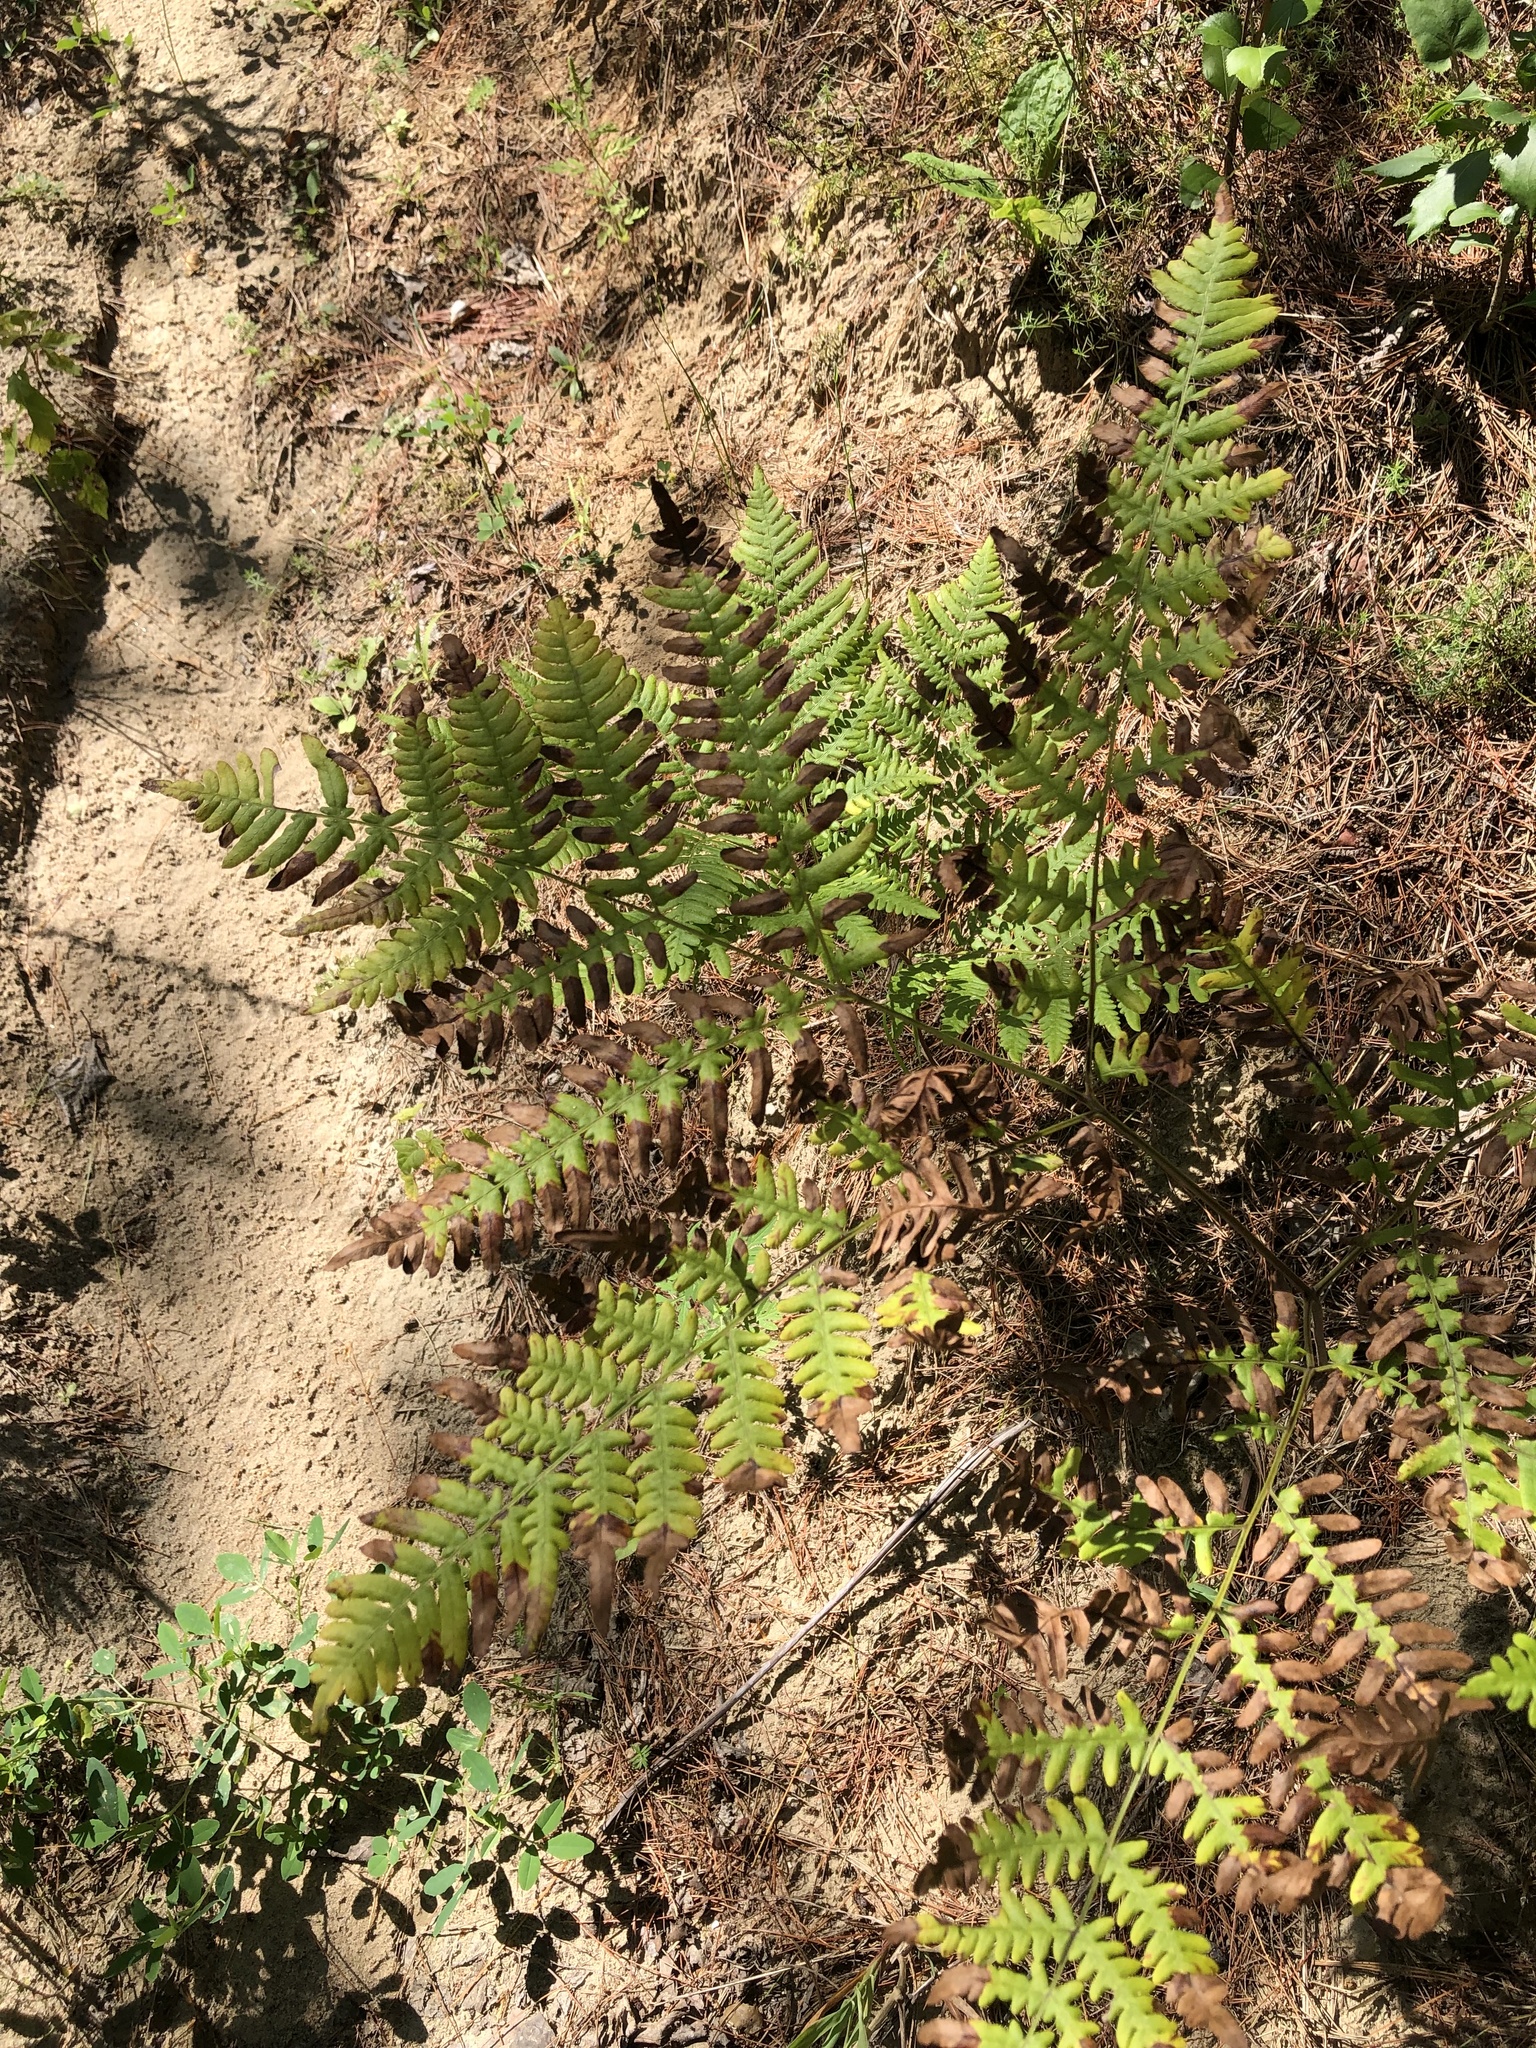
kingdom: Plantae
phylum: Tracheophyta
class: Polypodiopsida
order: Polypodiales
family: Dennstaedtiaceae
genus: Pteridium
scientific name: Pteridium aquilinum
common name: Bracken
